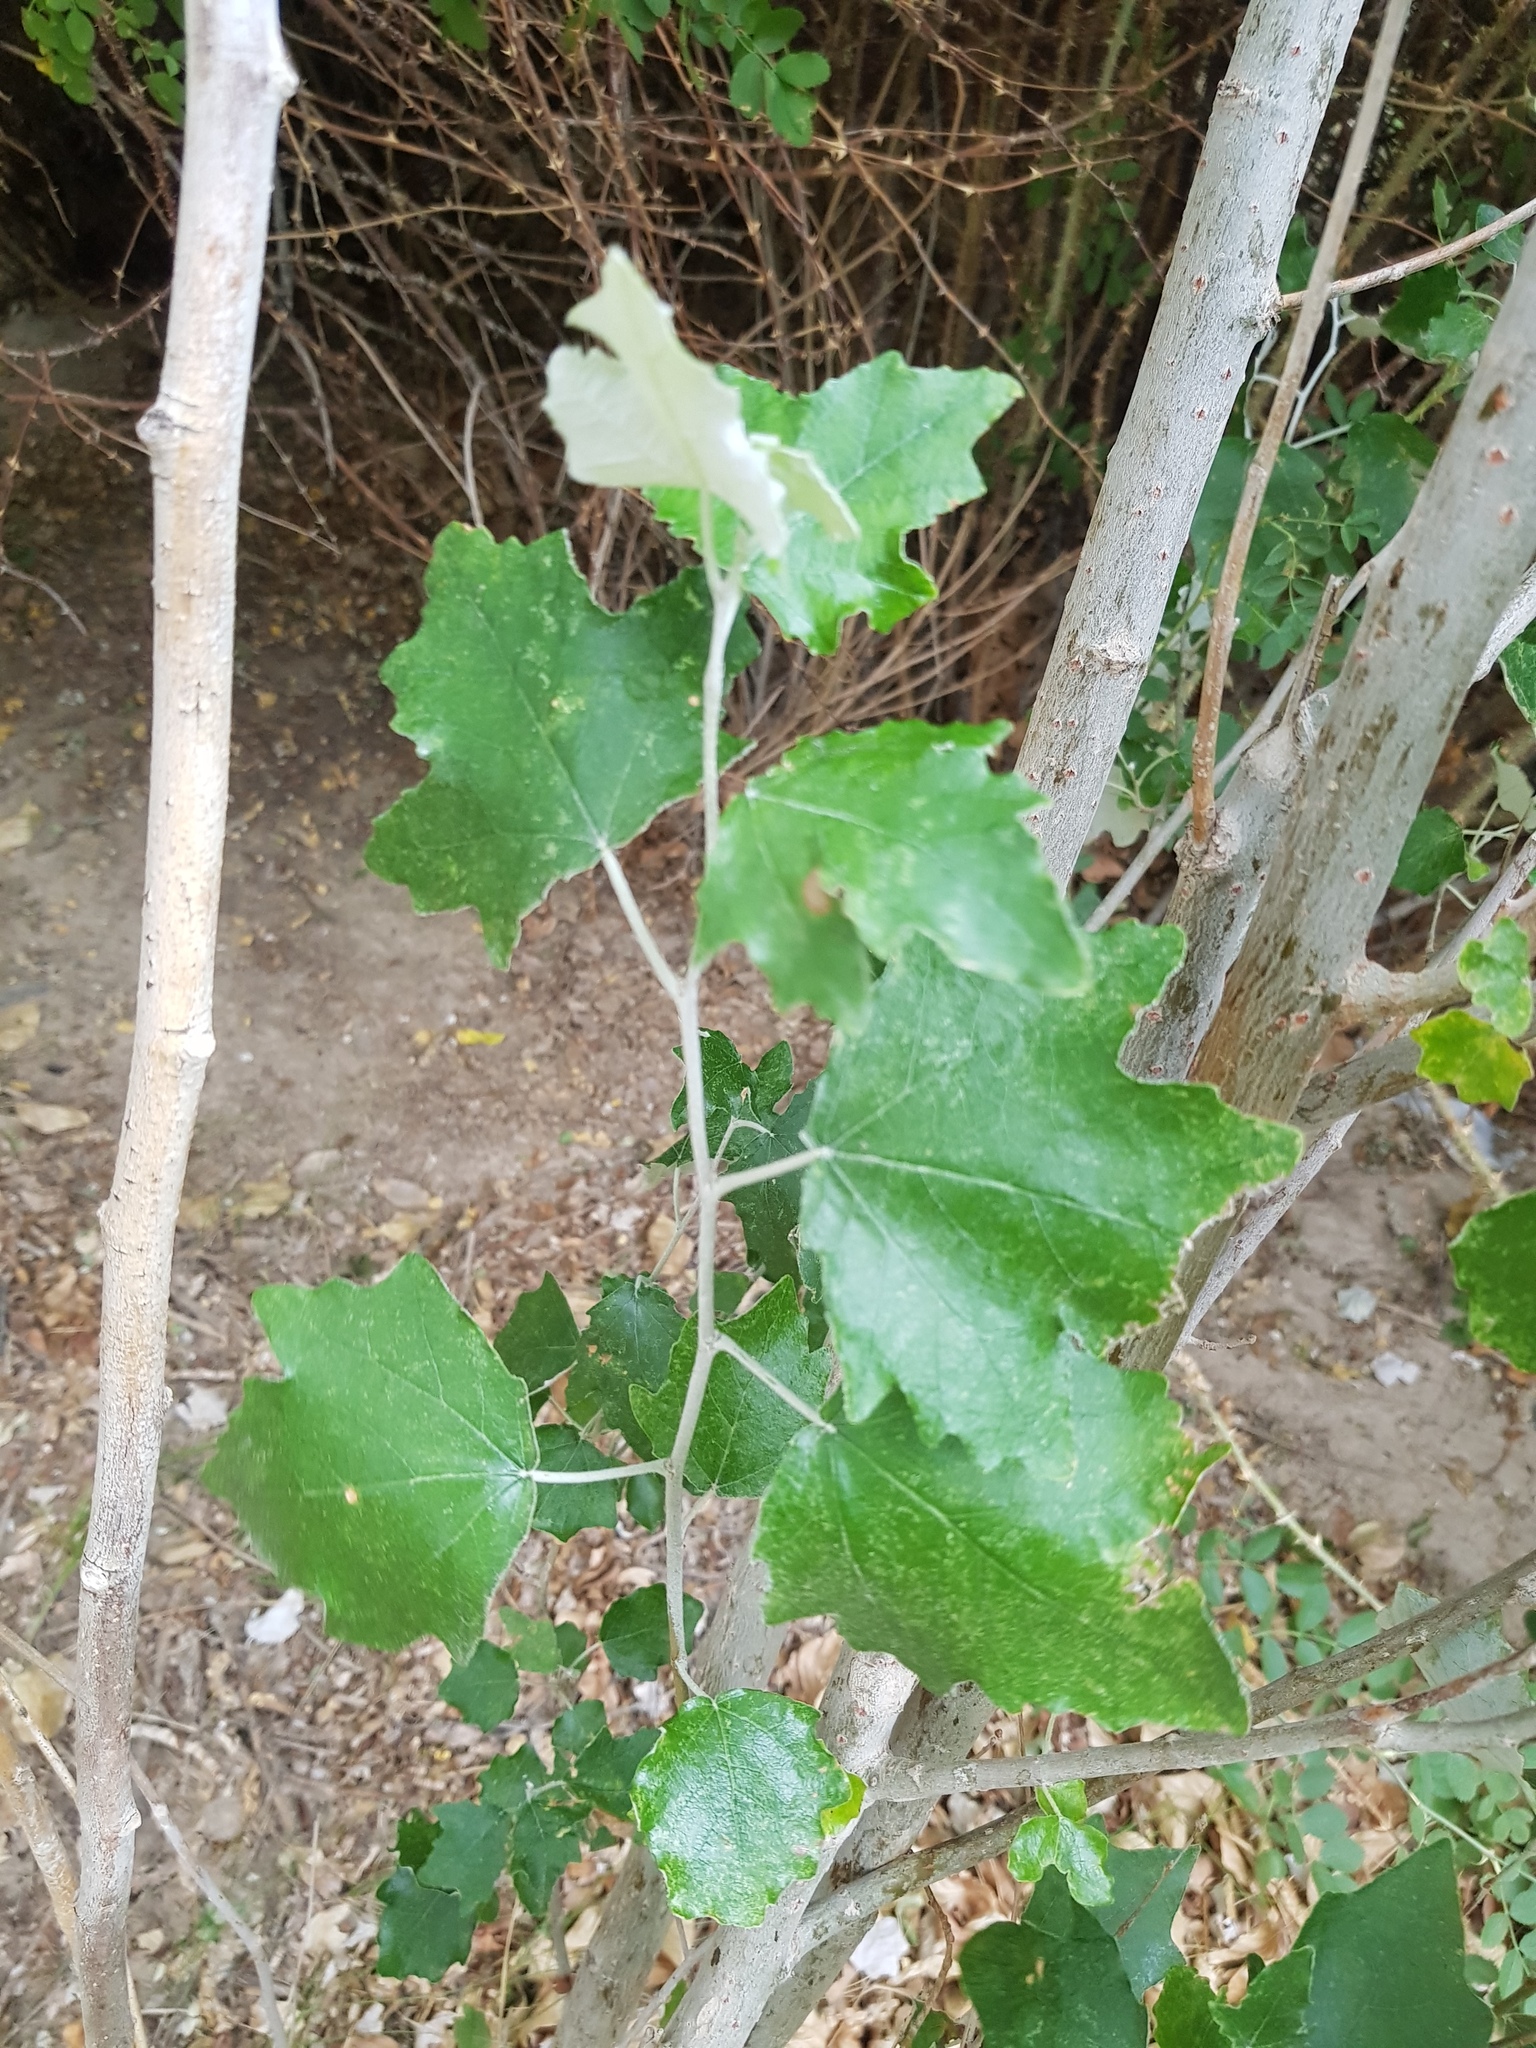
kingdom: Plantae
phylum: Tracheophyta
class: Magnoliopsida
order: Malpighiales
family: Salicaceae
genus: Populus
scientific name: Populus alba
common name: White poplar
